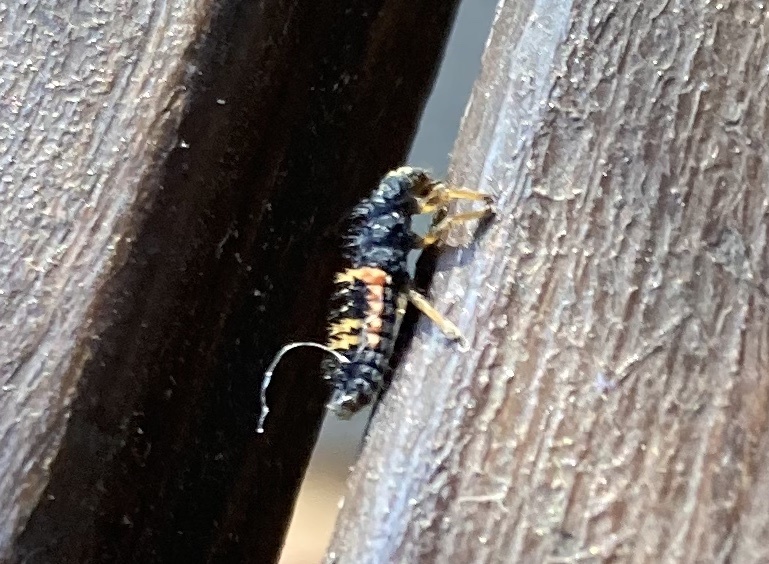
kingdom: Animalia
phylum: Arthropoda
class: Insecta
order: Coleoptera
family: Coccinellidae
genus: Harmonia
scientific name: Harmonia axyridis
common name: Harlequin ladybird
